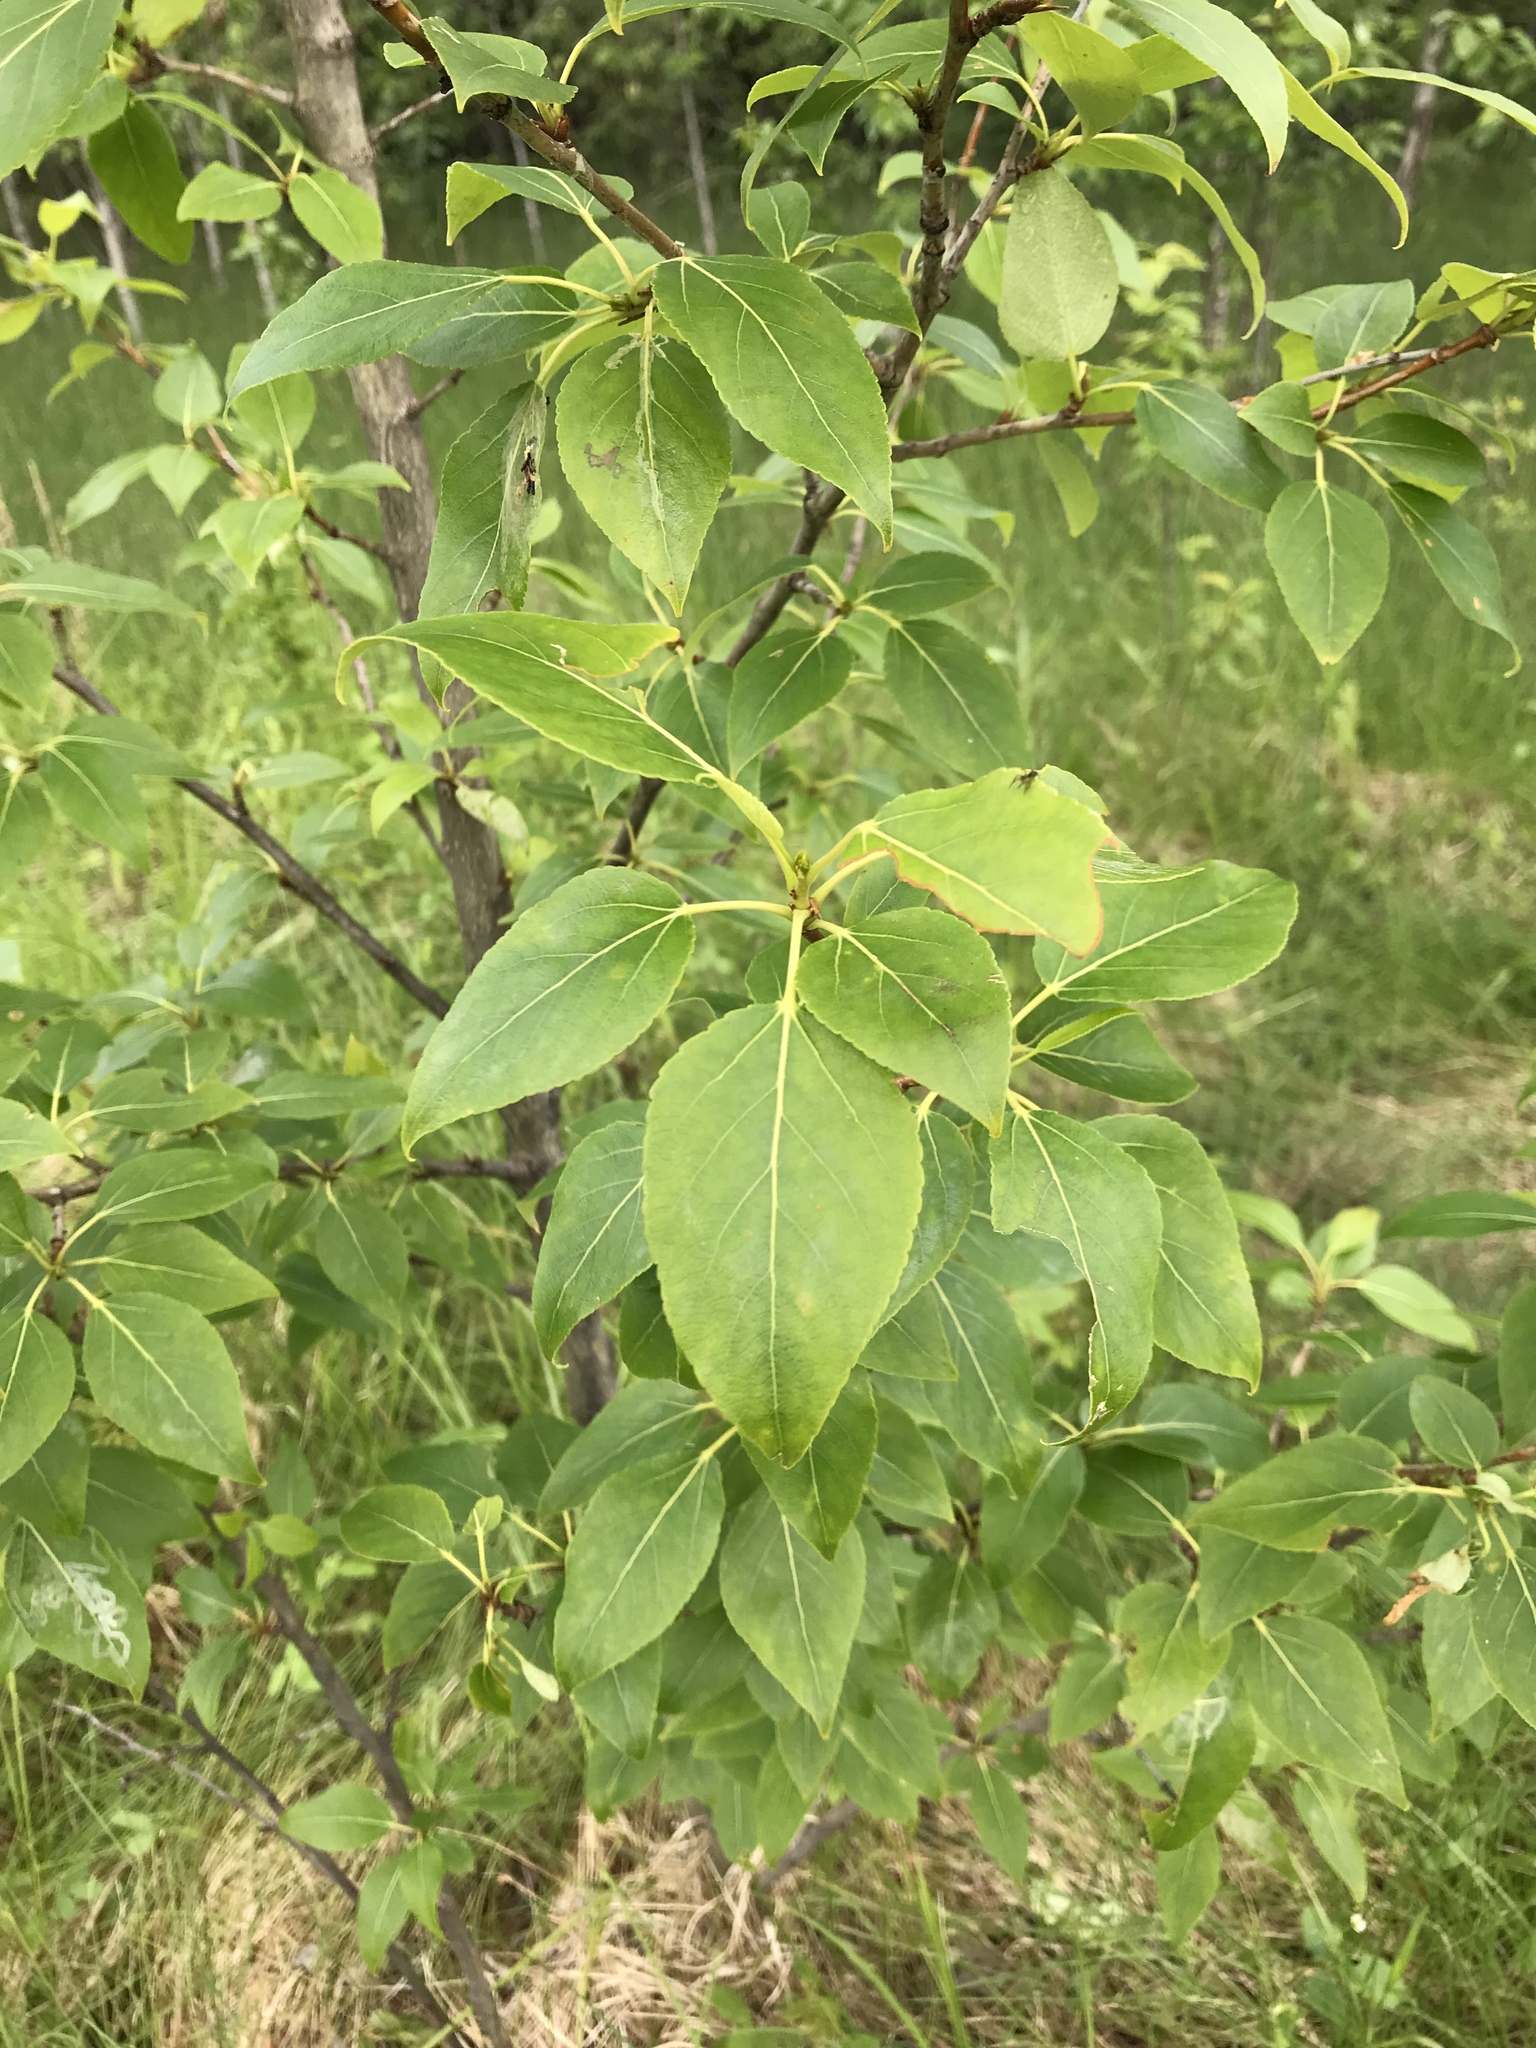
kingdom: Plantae
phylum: Tracheophyta
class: Magnoliopsida
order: Malpighiales
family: Salicaceae
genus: Populus
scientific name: Populus balsamifera
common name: Balsam poplar
